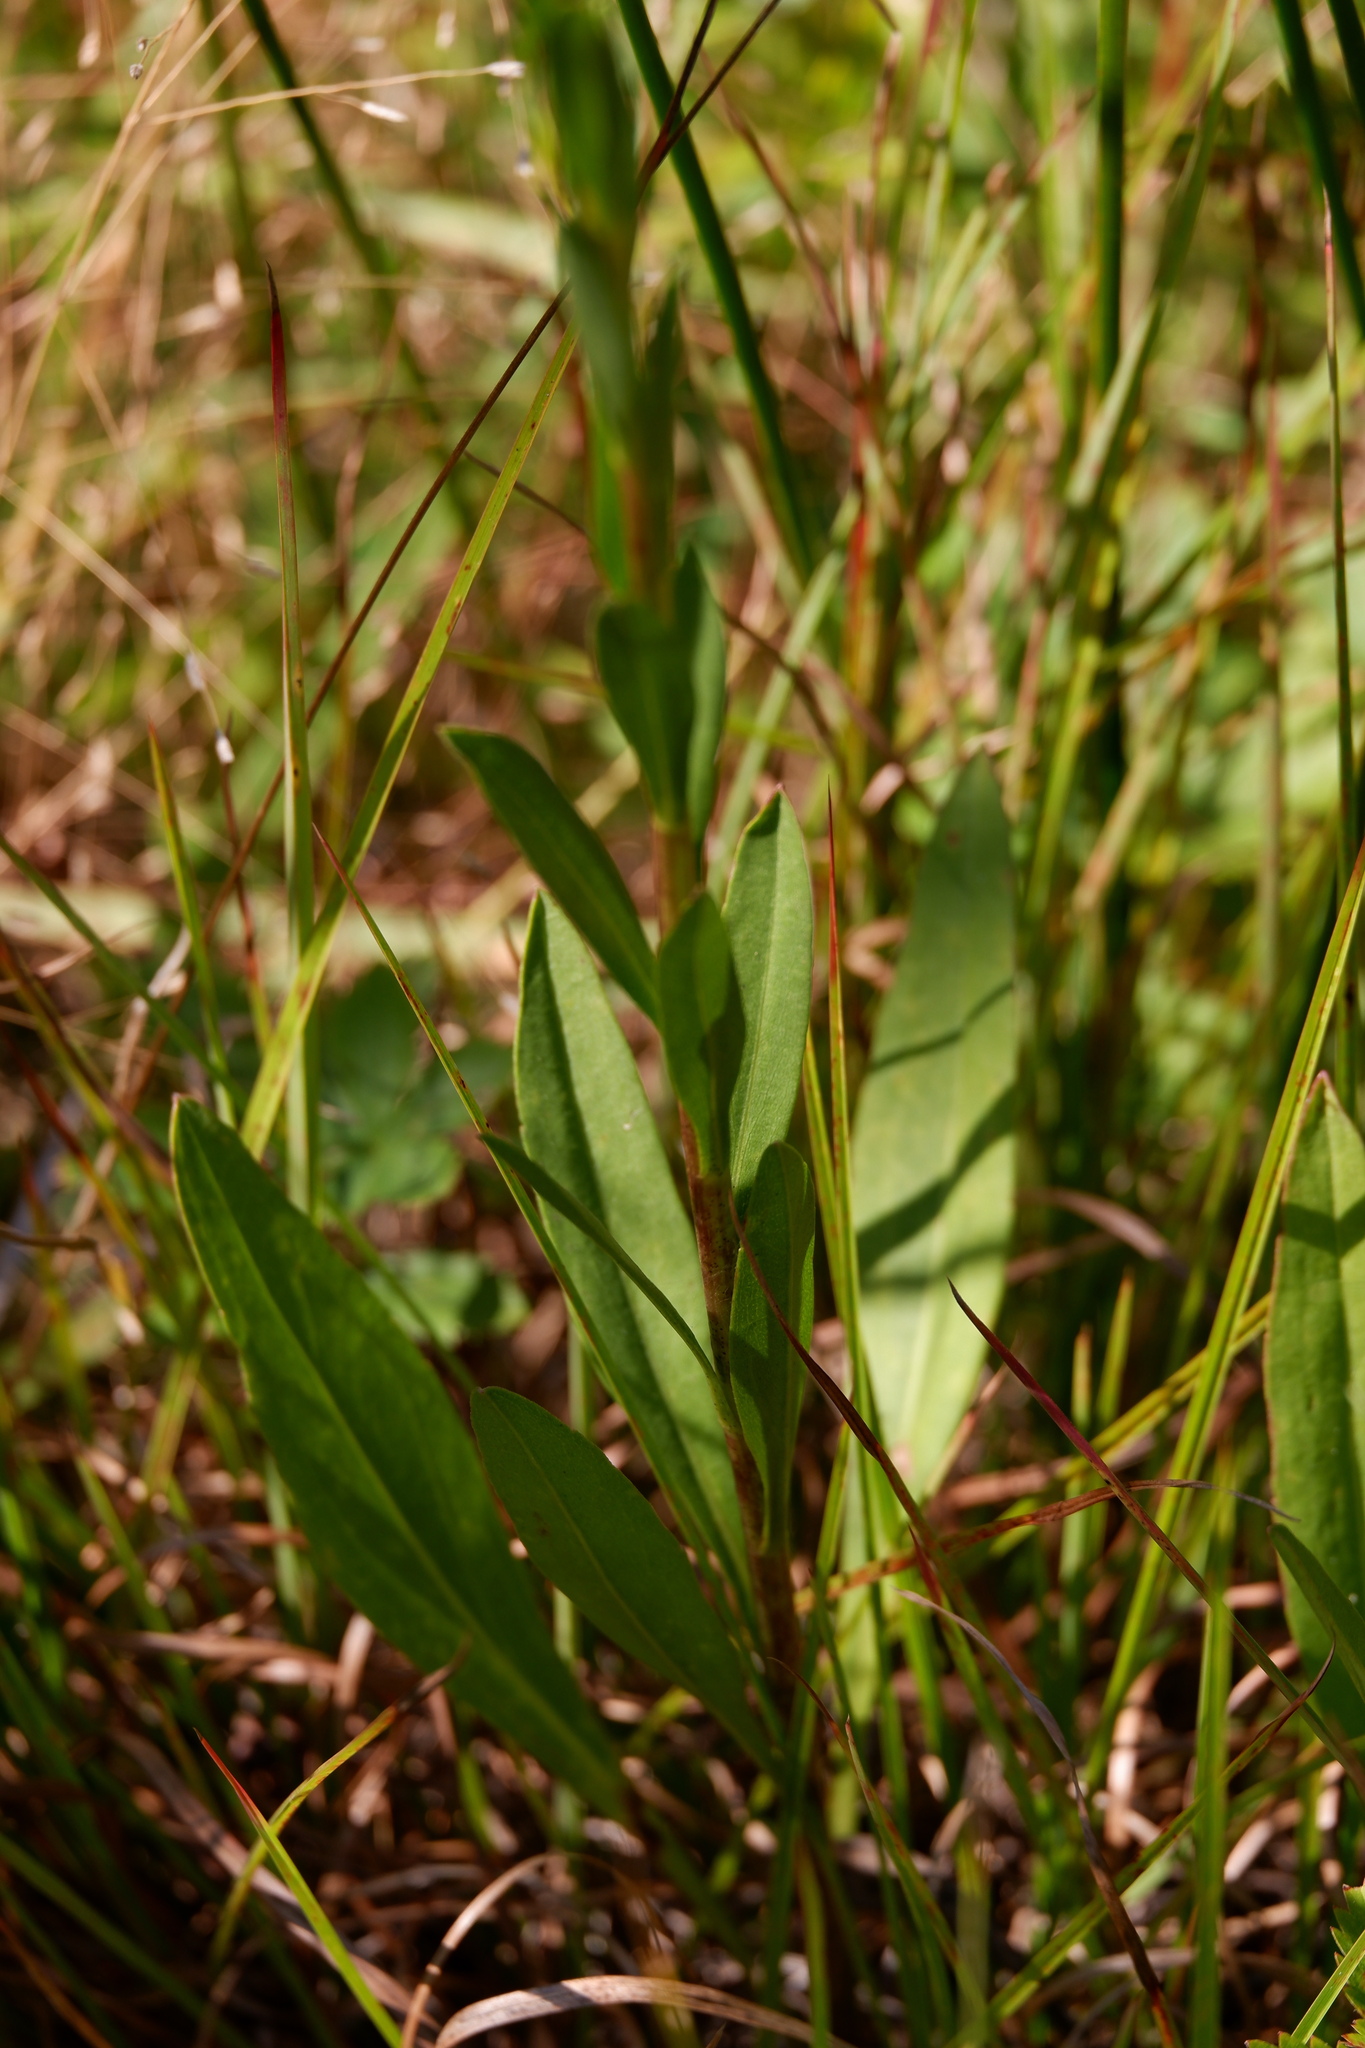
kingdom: Plantae
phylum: Tracheophyta
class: Magnoliopsida
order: Asterales
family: Asteraceae
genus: Solidago
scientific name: Solidago stricta
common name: Pine barren bog goldenrod
